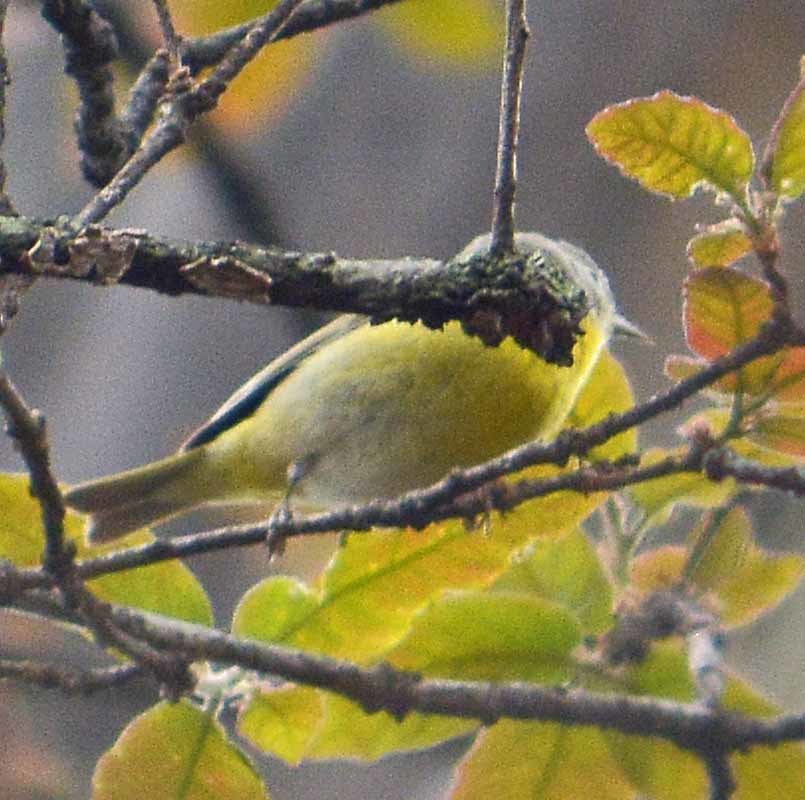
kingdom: Animalia
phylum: Chordata
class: Aves
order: Passeriformes
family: Parulidae
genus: Leiothlypis
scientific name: Leiothlypis ruficapilla
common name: Nashville warbler
